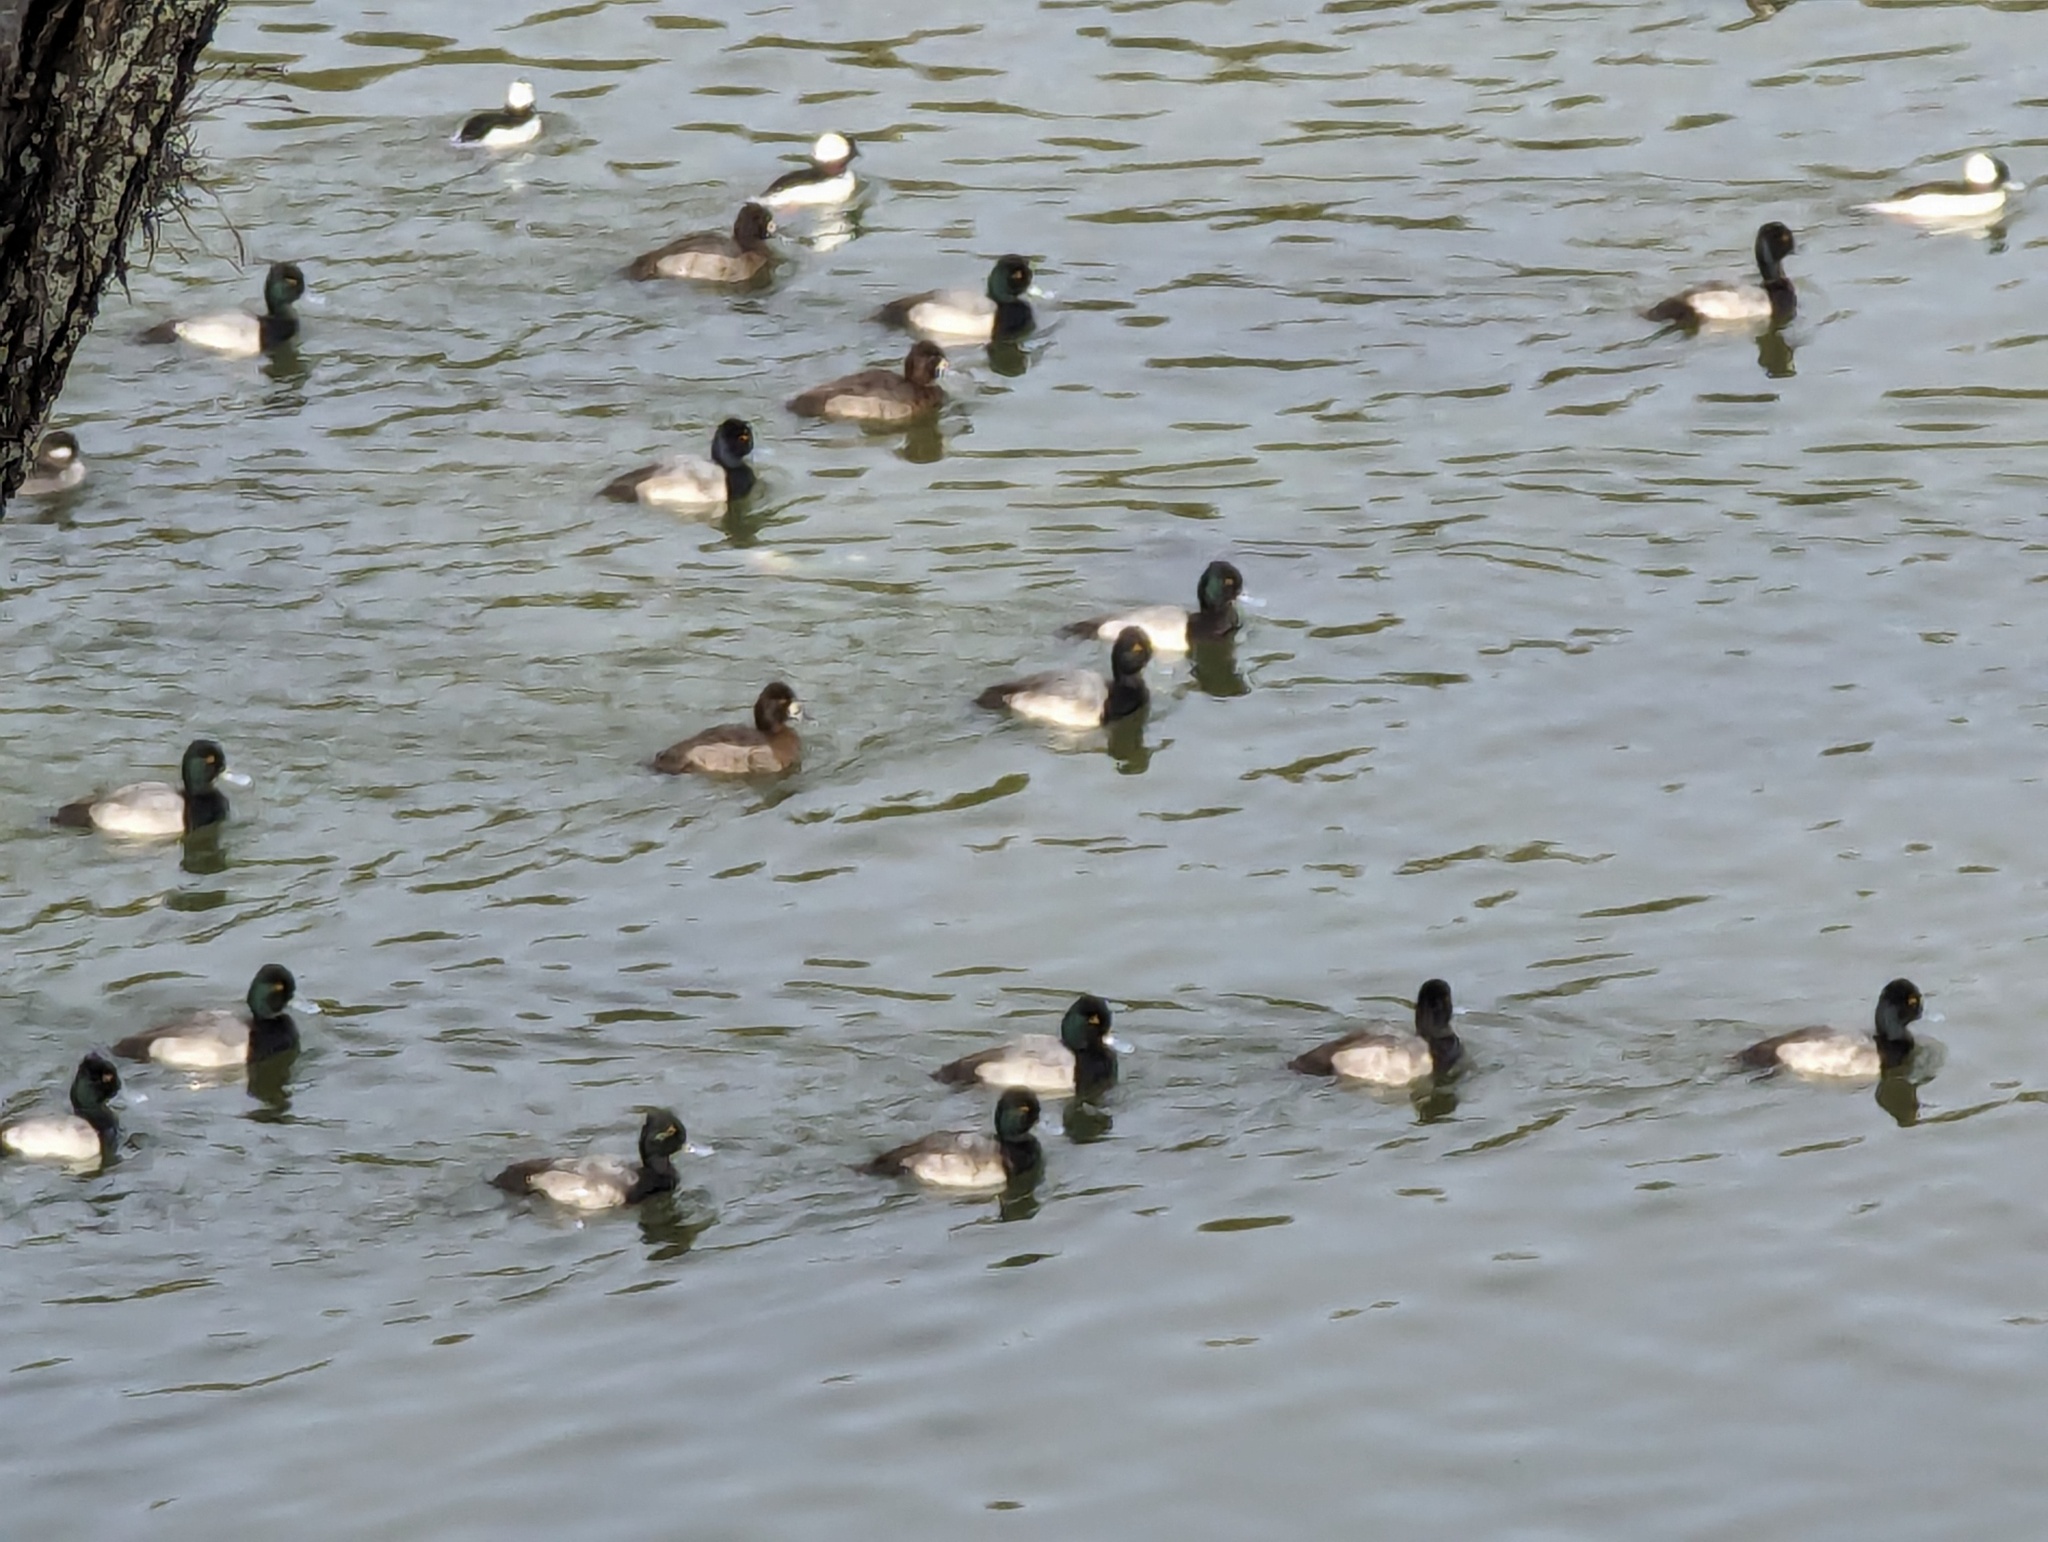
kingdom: Animalia
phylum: Chordata
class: Aves
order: Anseriformes
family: Anatidae
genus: Aythya
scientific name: Aythya affinis
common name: Lesser scaup
